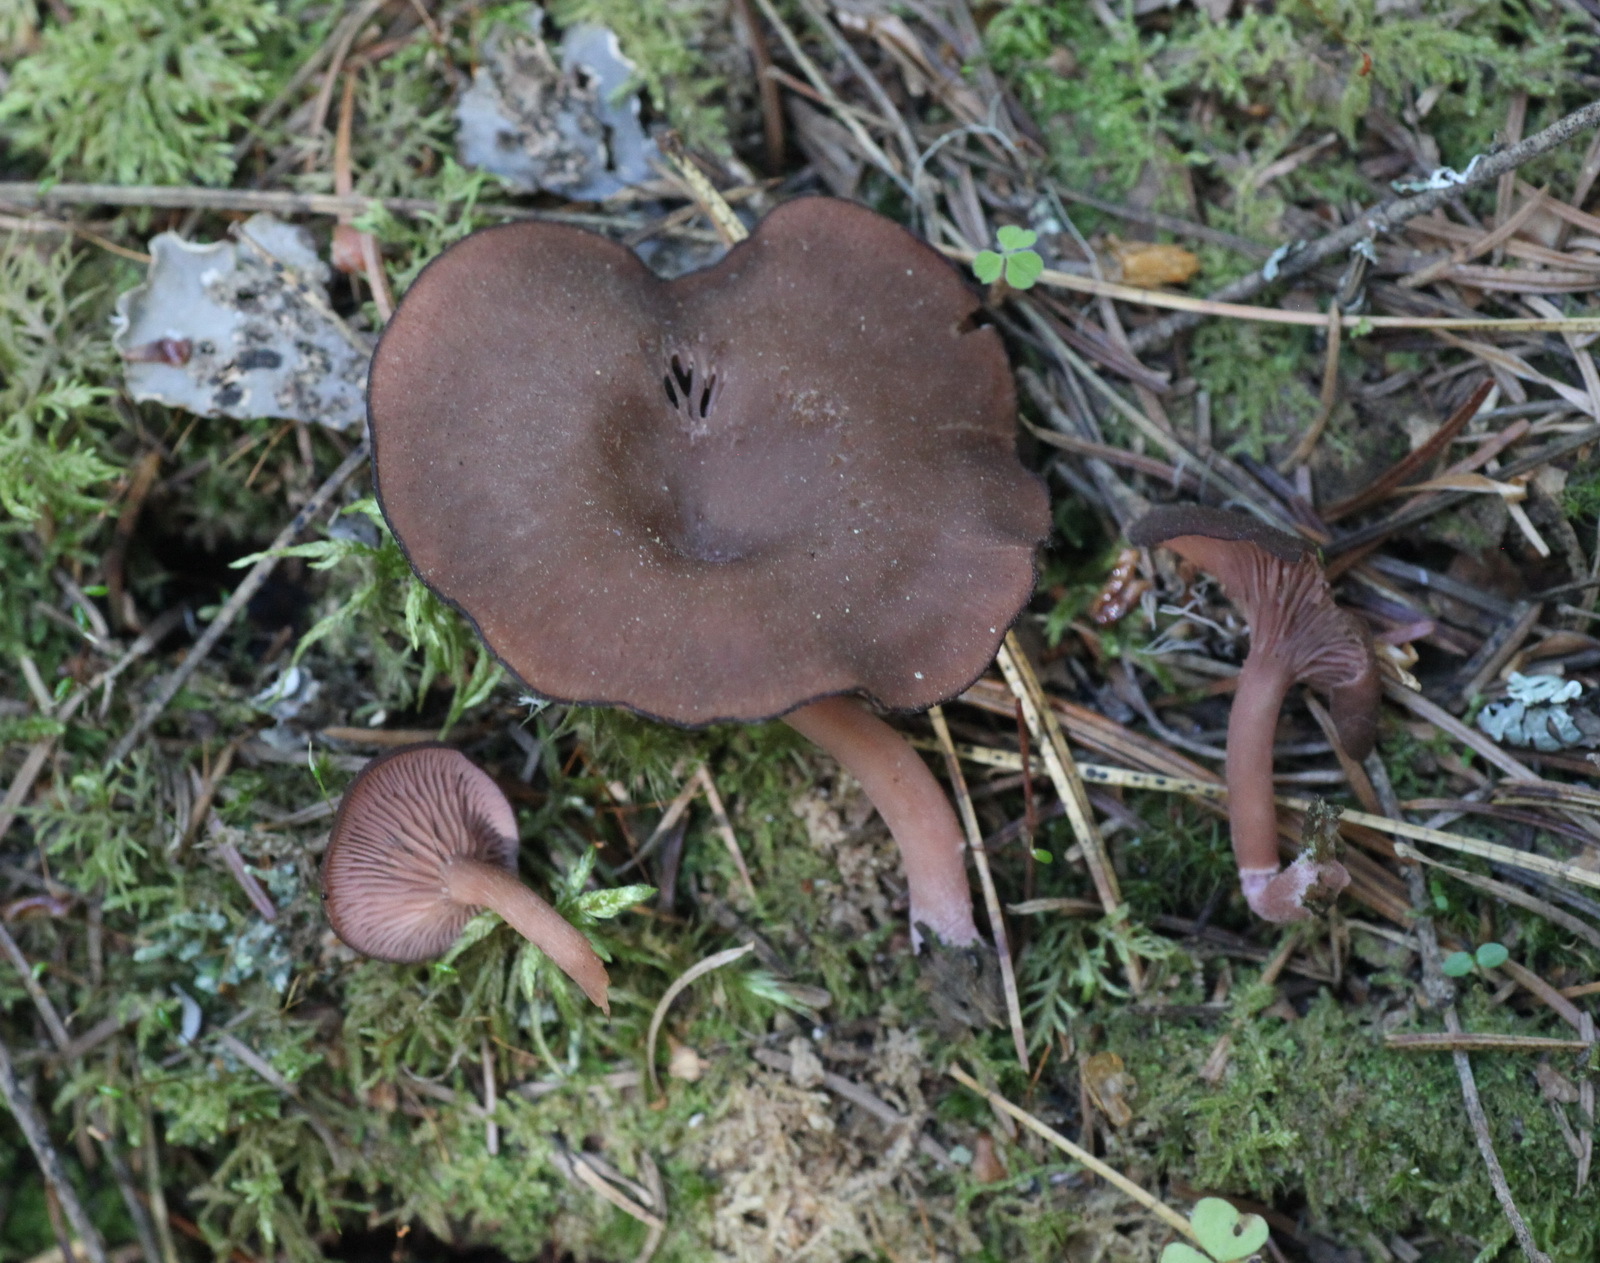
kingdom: Fungi
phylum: Basidiomycota
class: Agaricomycetes
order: Agaricales
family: Hygrophoraceae
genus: Arrhenia
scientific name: Arrhenia discorosea
